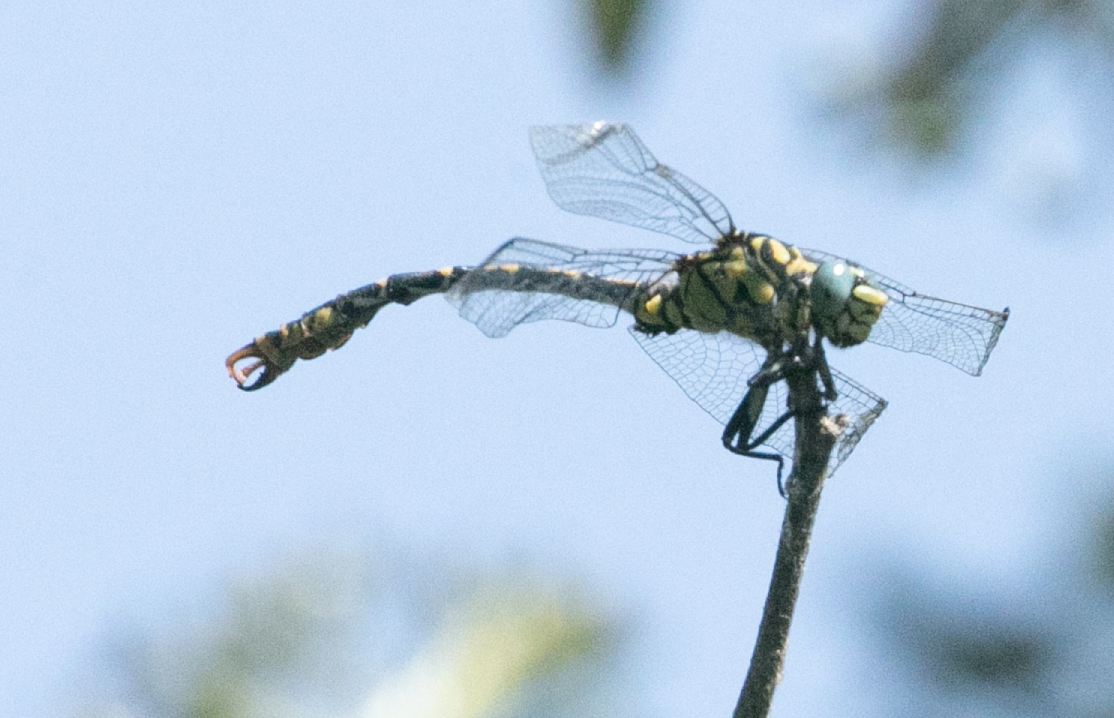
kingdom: Animalia
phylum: Arthropoda
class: Insecta
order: Odonata
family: Gomphidae
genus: Onychogomphus
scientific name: Onychogomphus forcipatus
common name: Small pincertail
